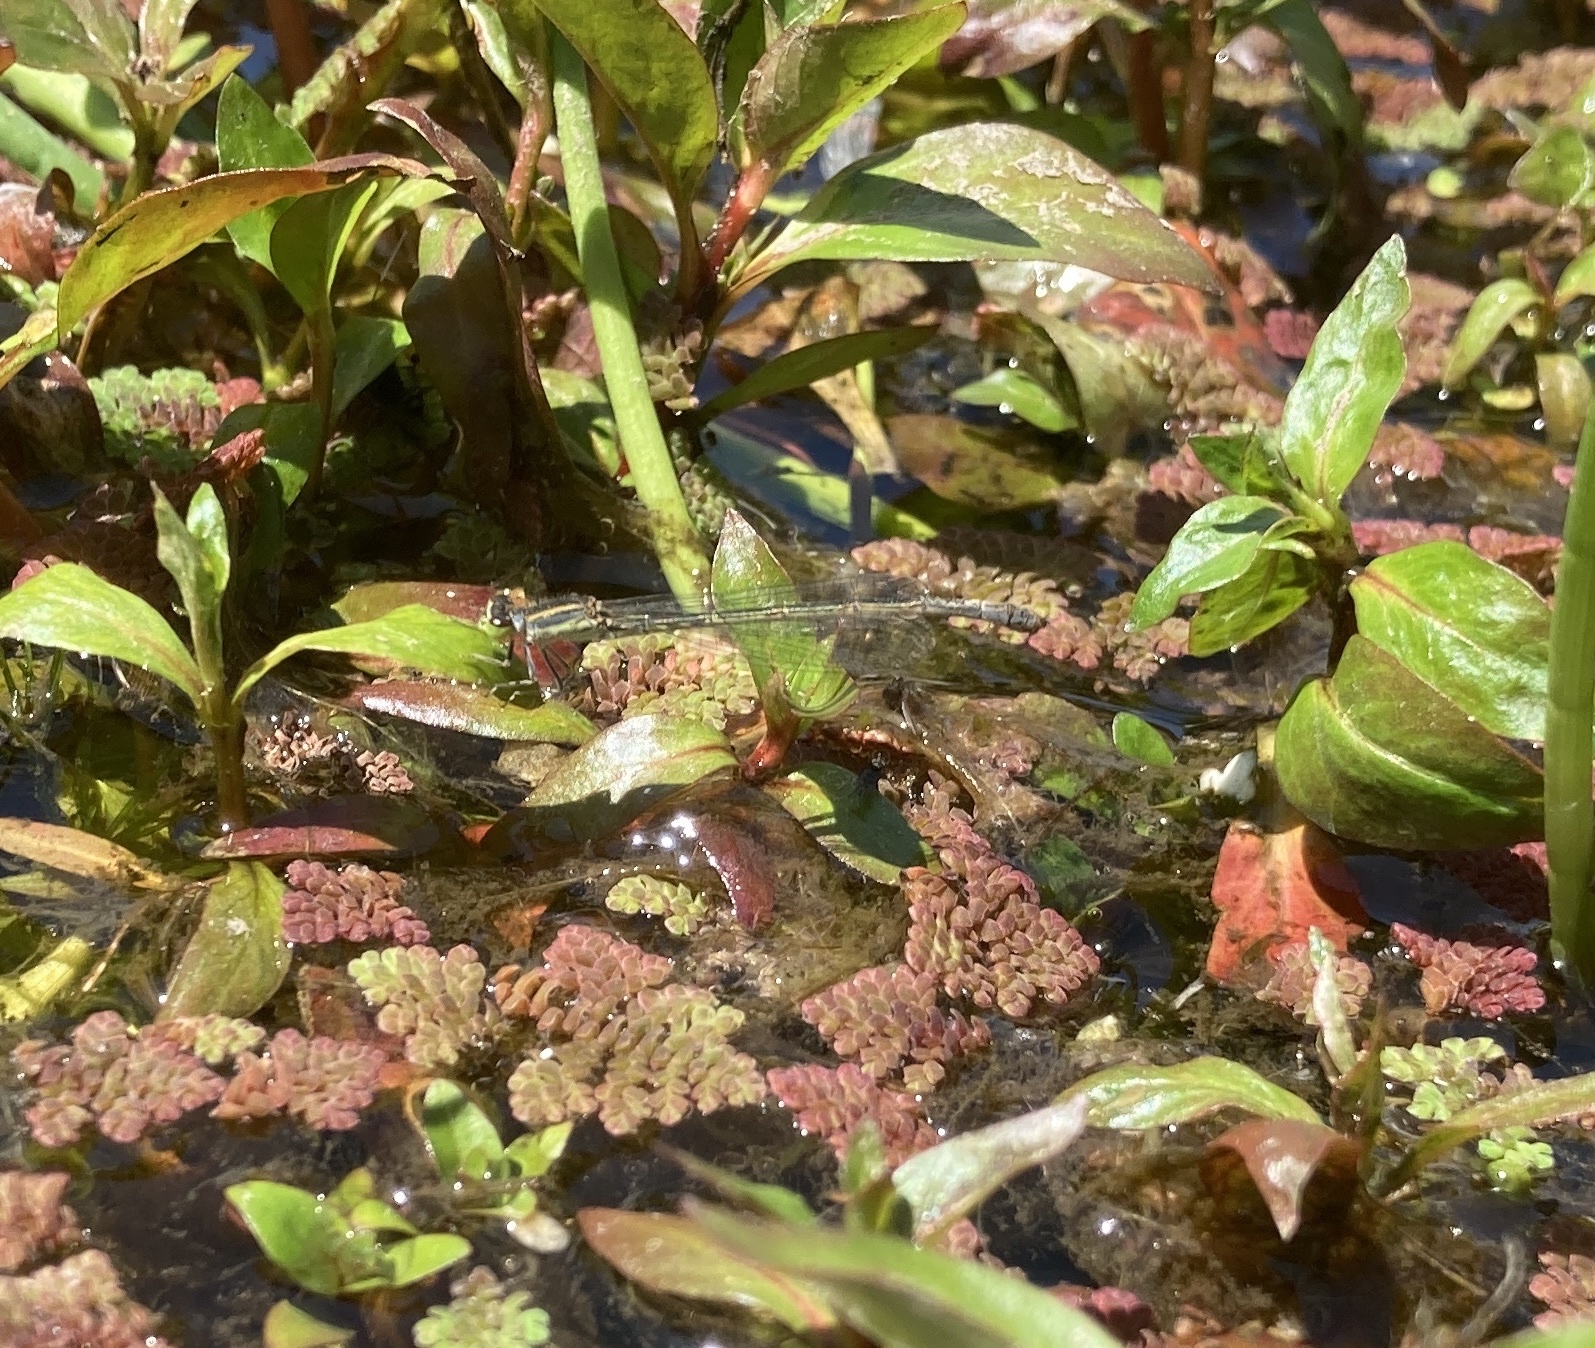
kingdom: Animalia
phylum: Arthropoda
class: Insecta
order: Odonata
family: Coenagrionidae
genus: Ischnura
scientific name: Ischnura aurora
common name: Gossamer damselfly
